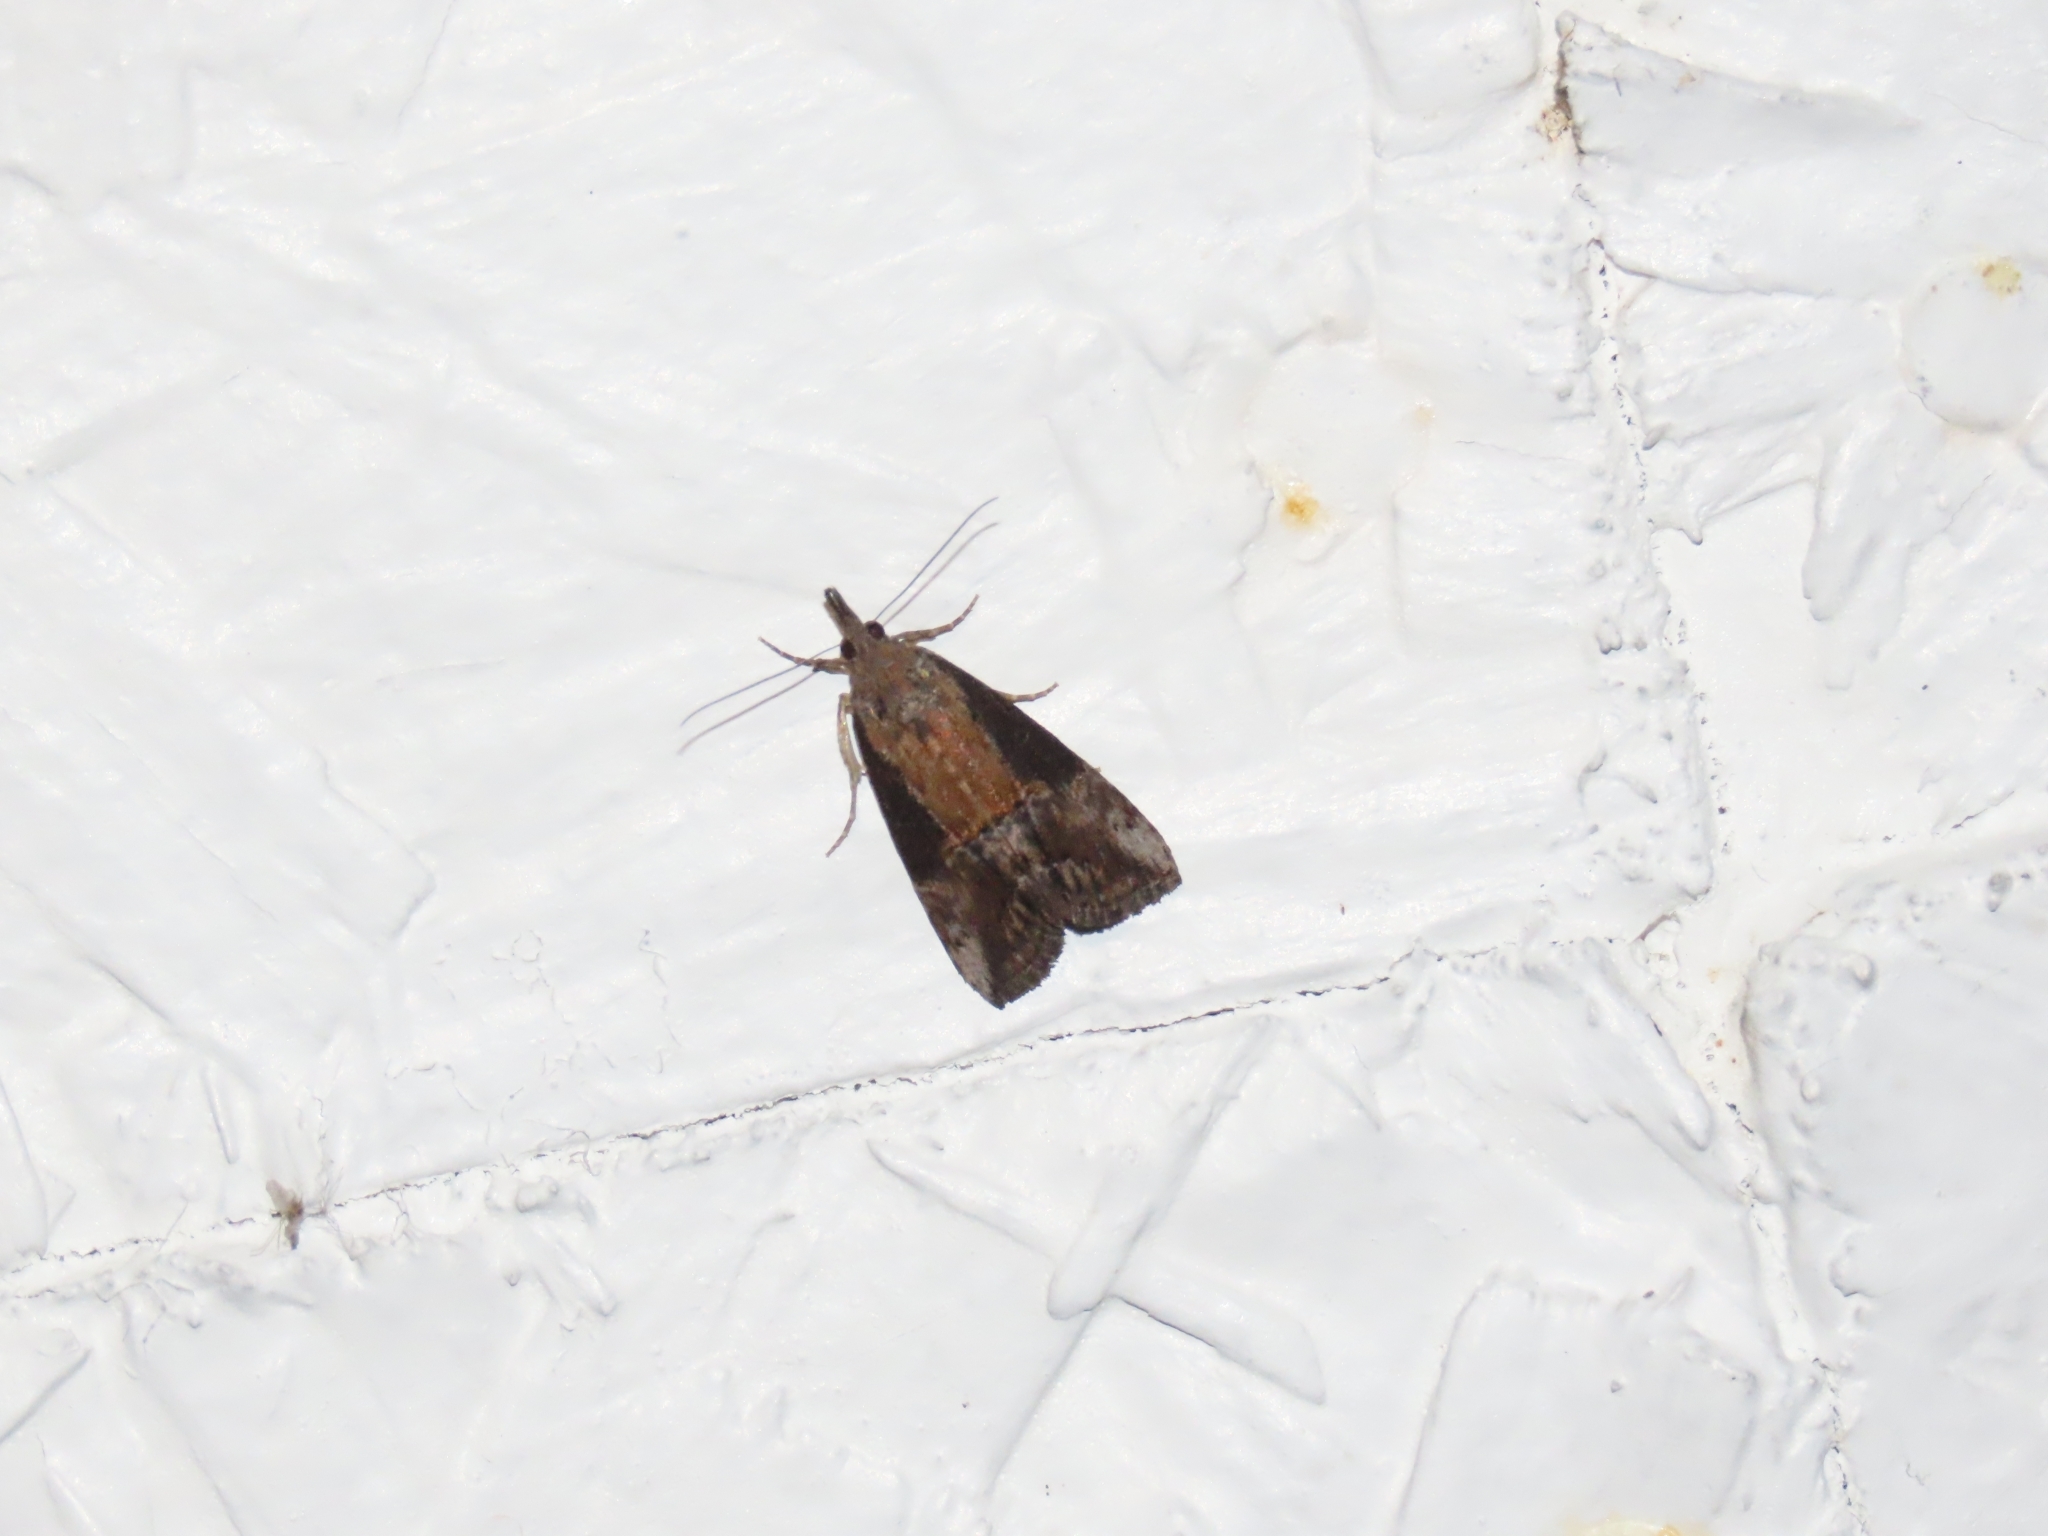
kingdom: Animalia
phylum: Arthropoda
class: Insecta
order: Lepidoptera
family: Erebidae
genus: Hypena
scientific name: Hypena scabra
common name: Green cloverworm
